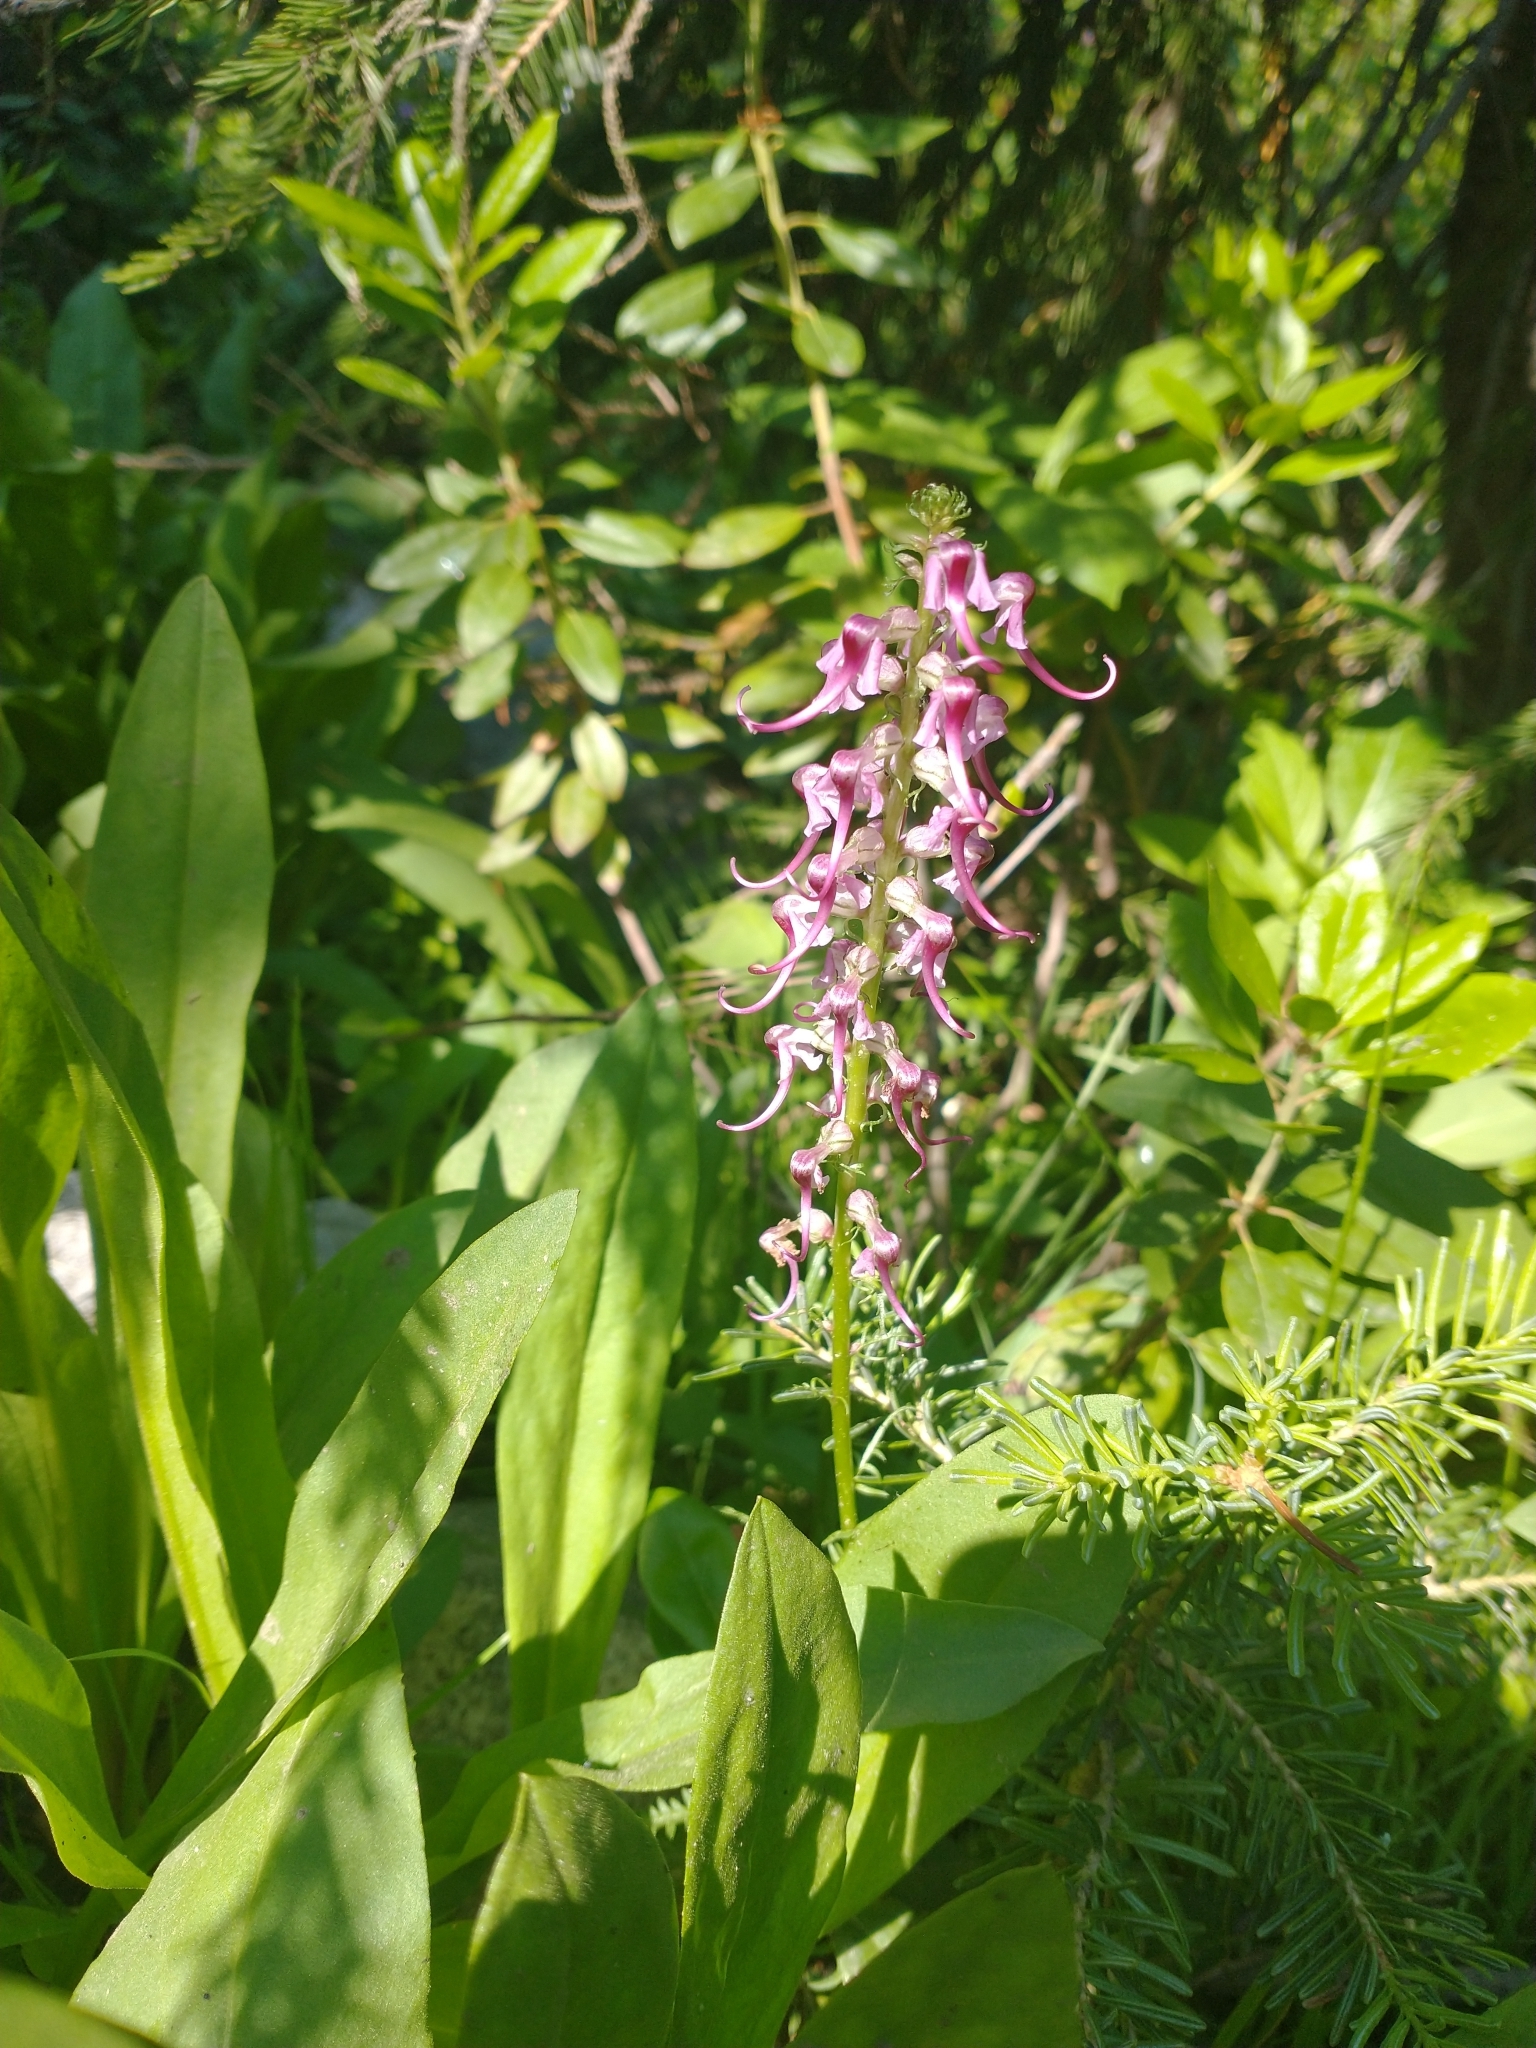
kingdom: Plantae
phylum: Tracheophyta
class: Magnoliopsida
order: Lamiales
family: Orobanchaceae
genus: Pedicularis
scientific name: Pedicularis groenlandica
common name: Elephant's-head
